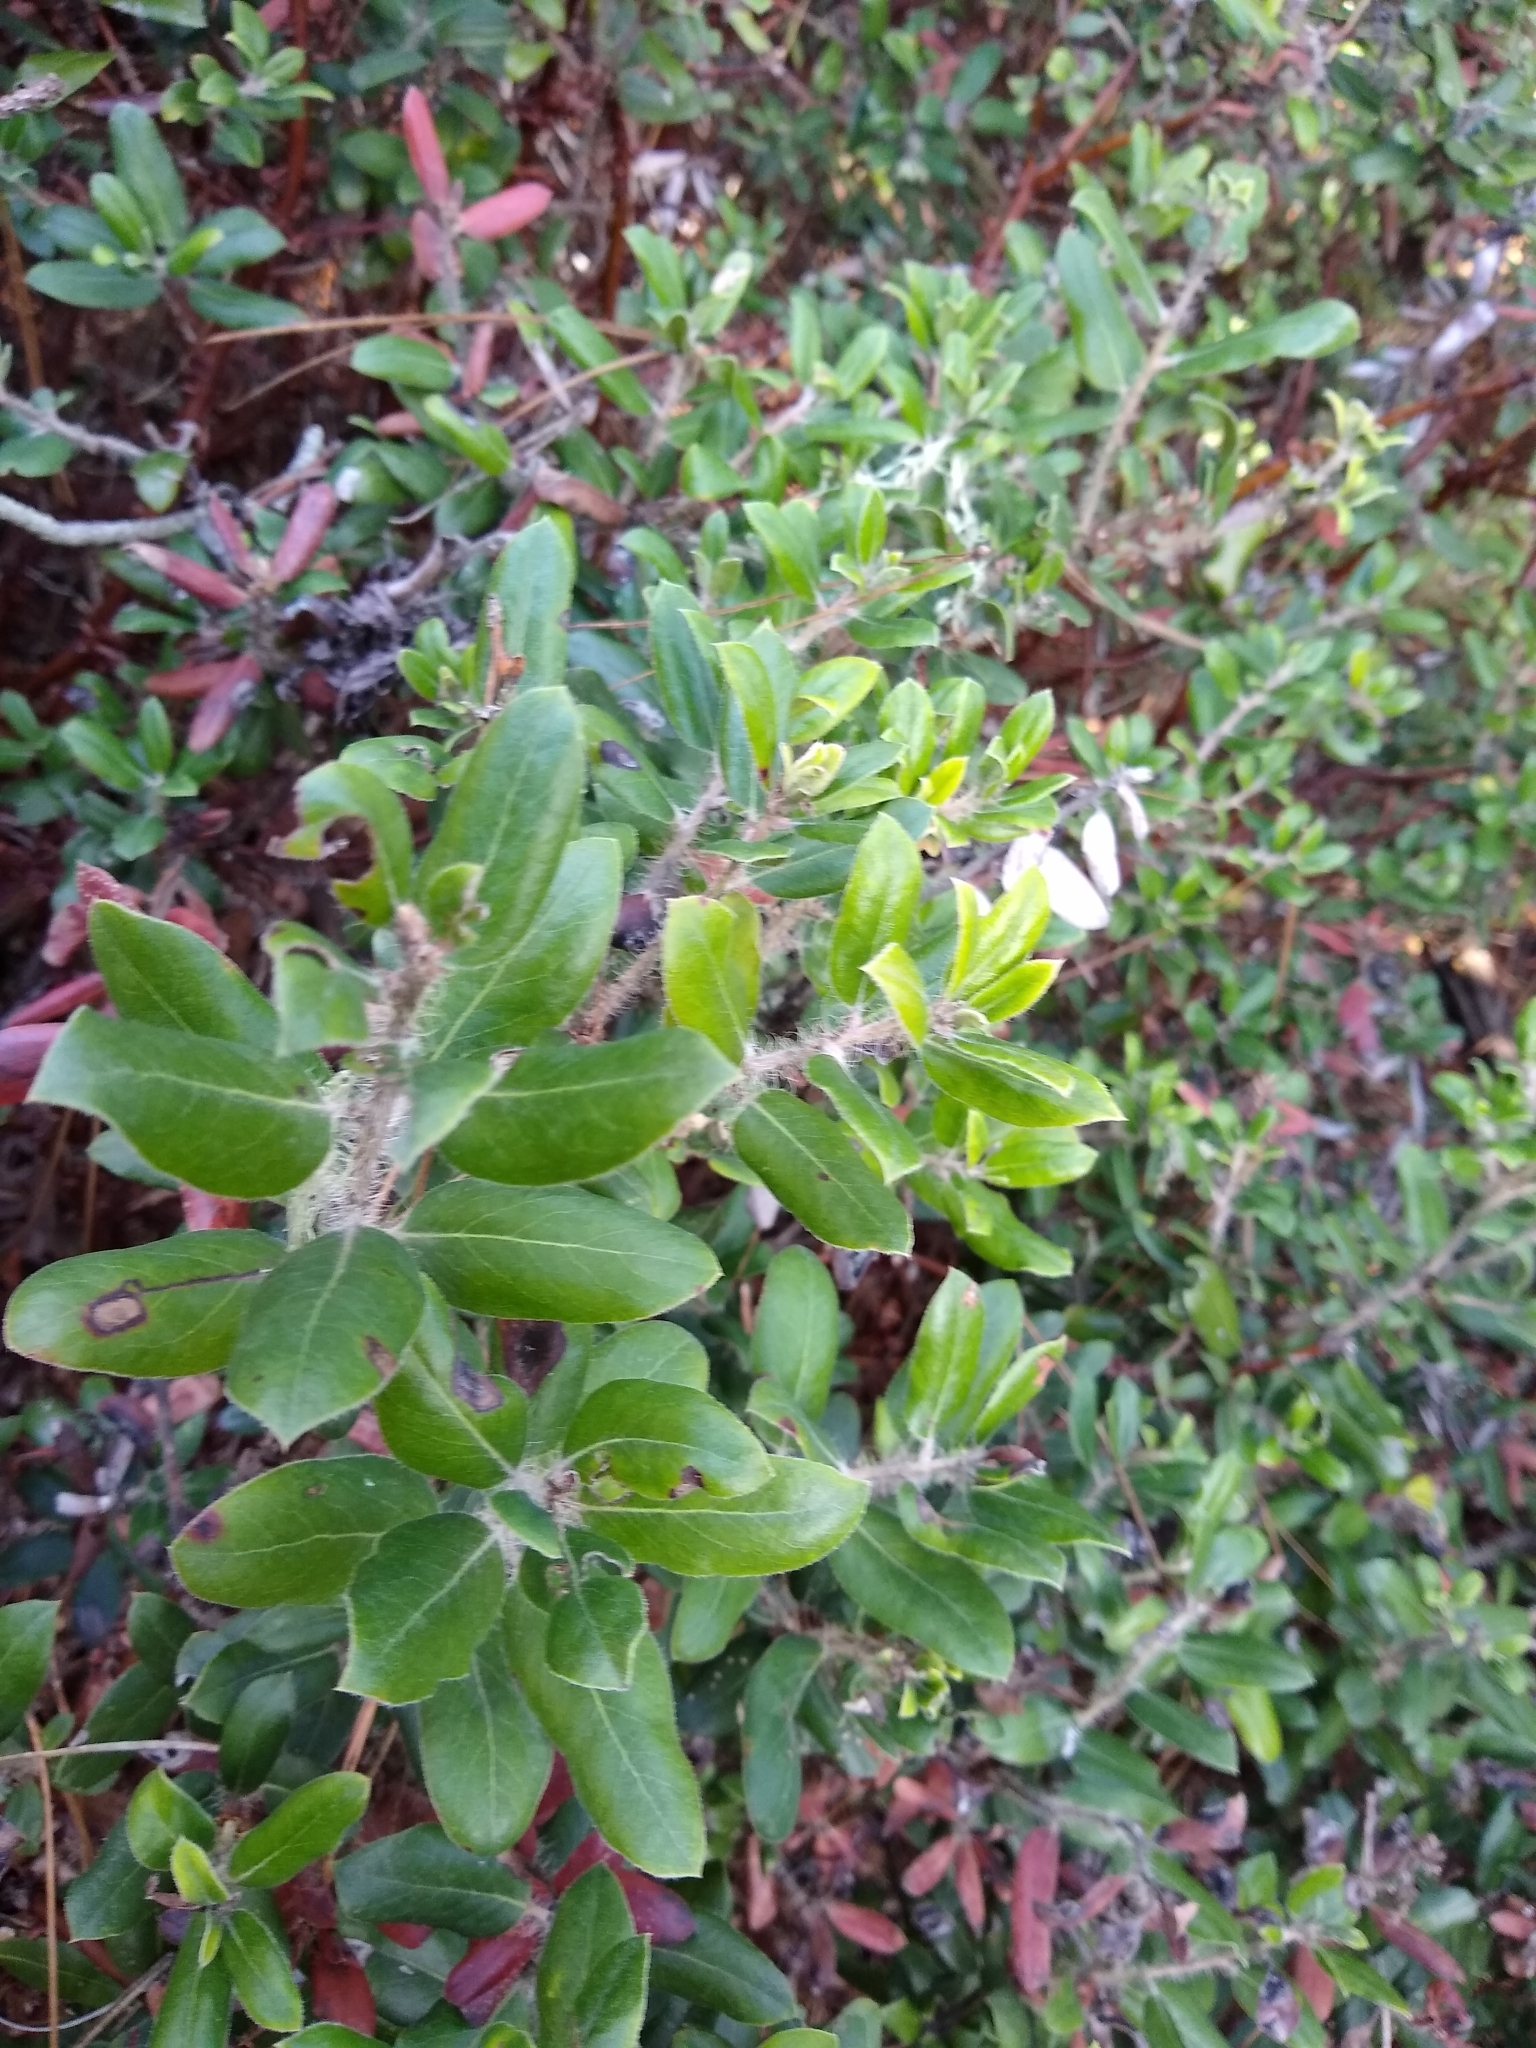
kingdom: Plantae
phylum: Tracheophyta
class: Magnoliopsida
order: Ericales
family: Ericaceae
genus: Arctostaphylos
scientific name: Arctostaphylos crustacea
